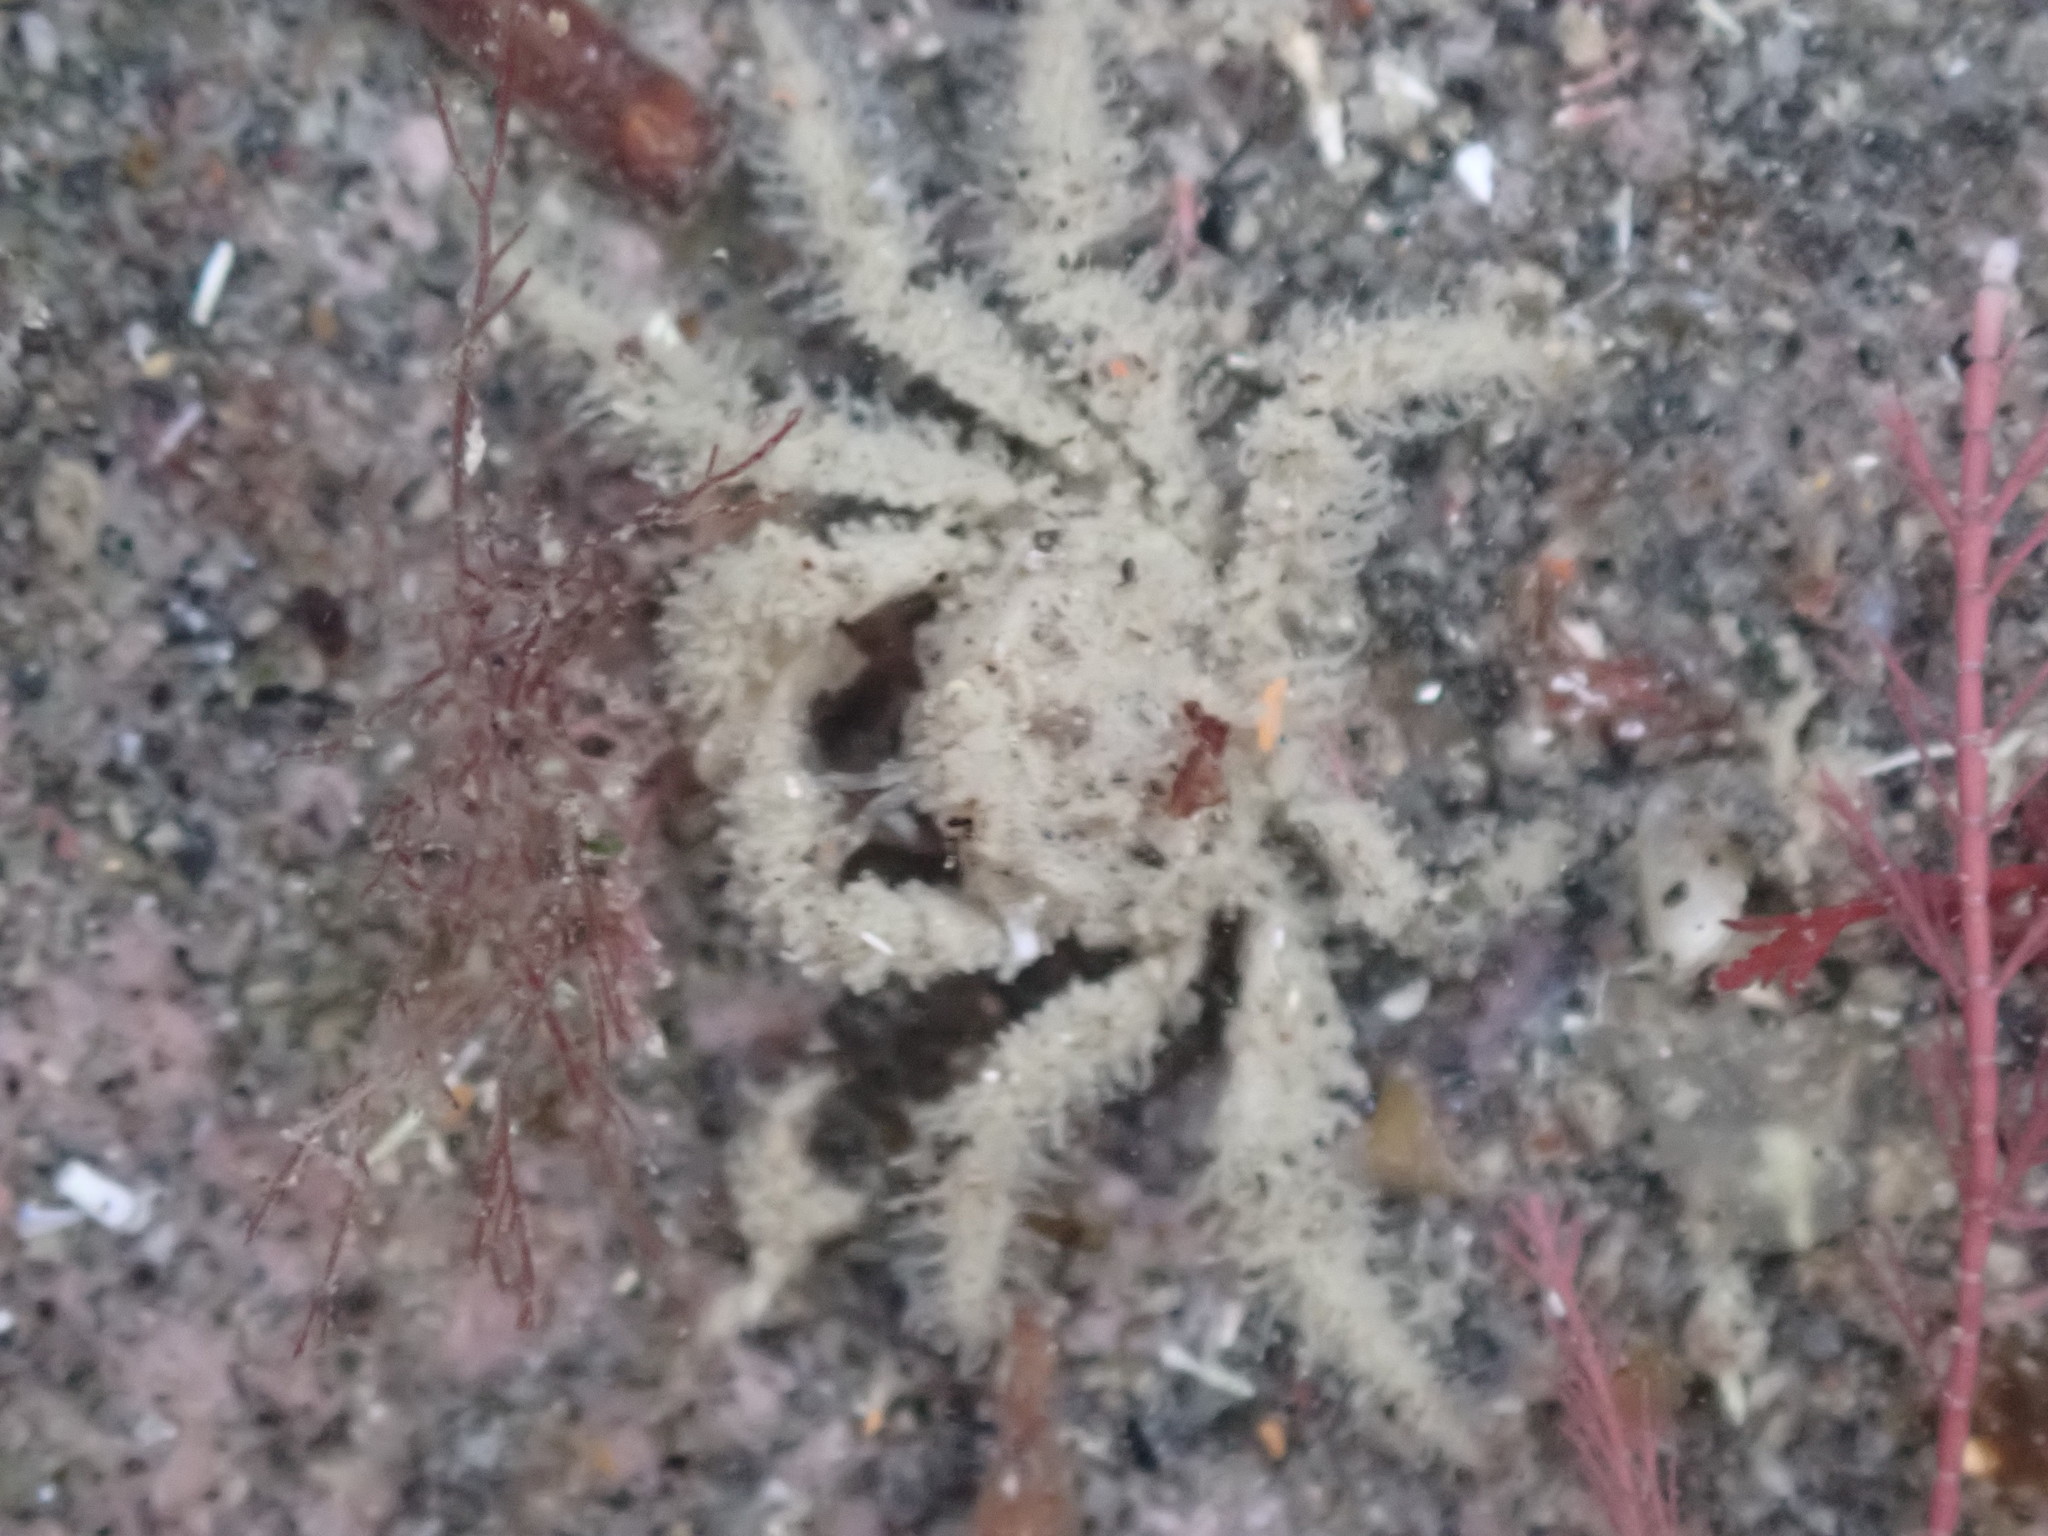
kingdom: Animalia
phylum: Arthropoda
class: Malacostraca
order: Decapoda
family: Hymenosomatidae
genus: Neohymenicus
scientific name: Neohymenicus pubescens
